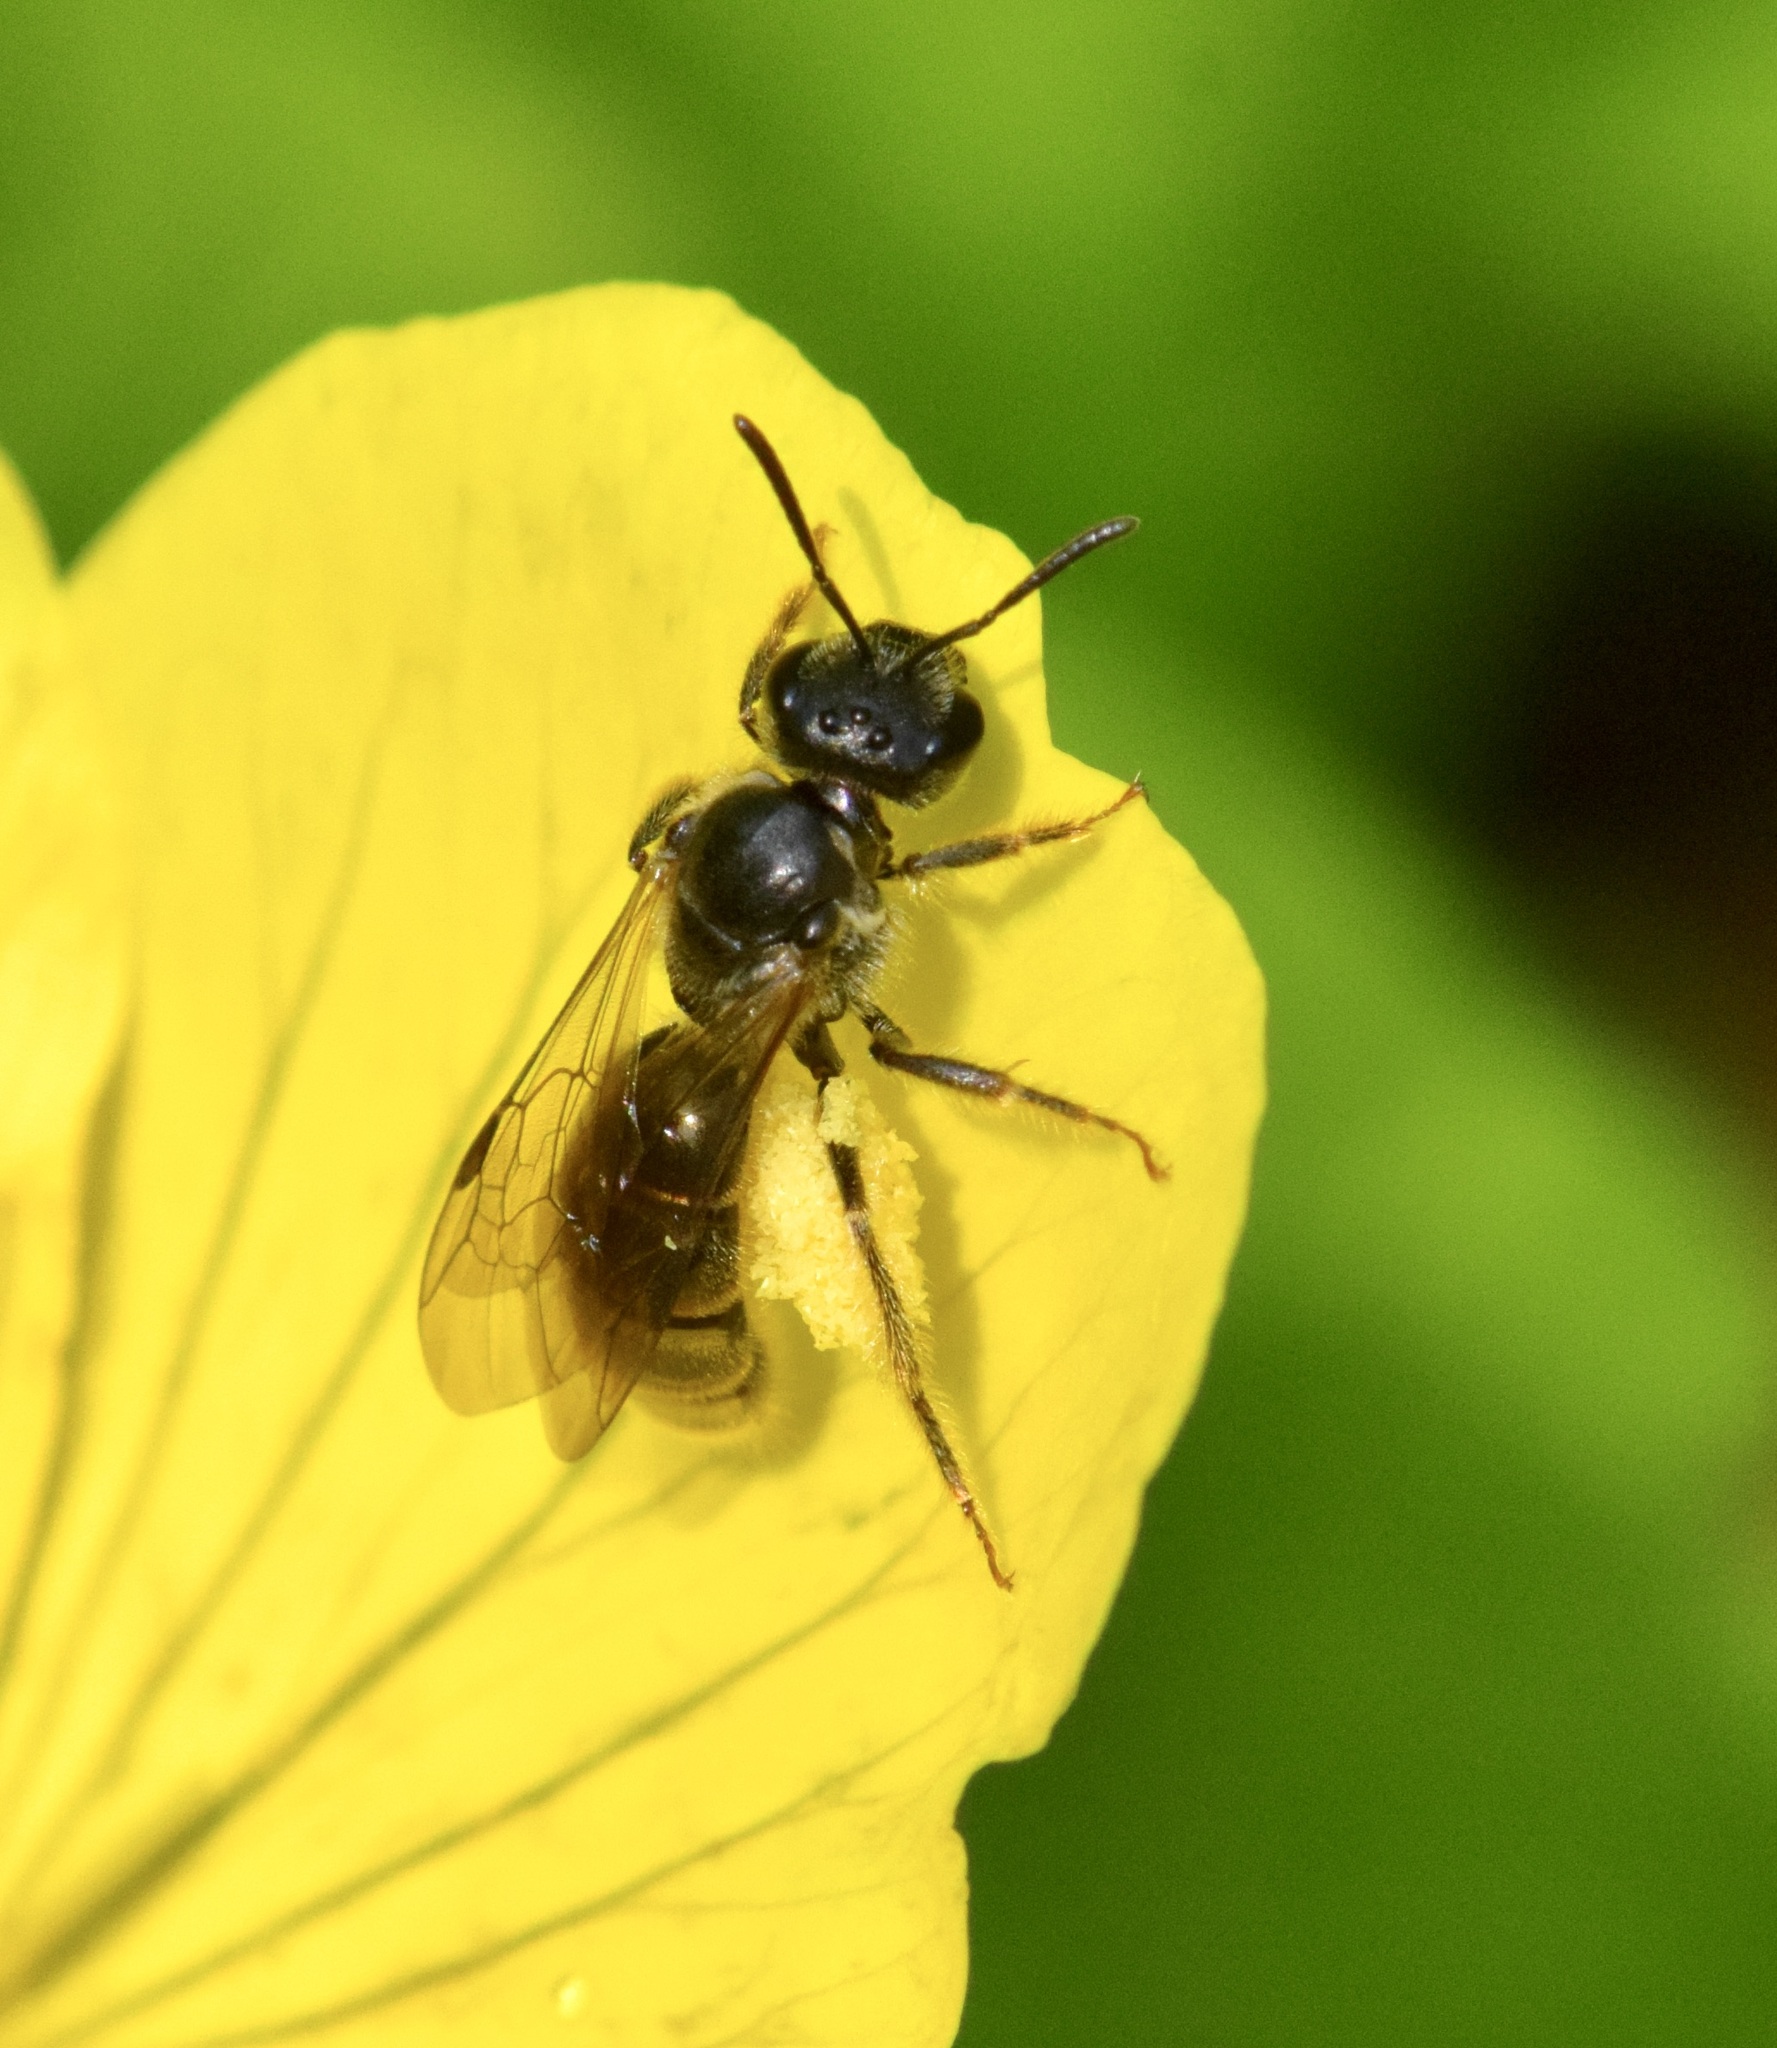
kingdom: Animalia
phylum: Arthropoda
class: Insecta
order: Hymenoptera
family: Halictidae
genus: Lasioglossum
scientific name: Lasioglossum oenotherae
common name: Evening primrose sweat bee
